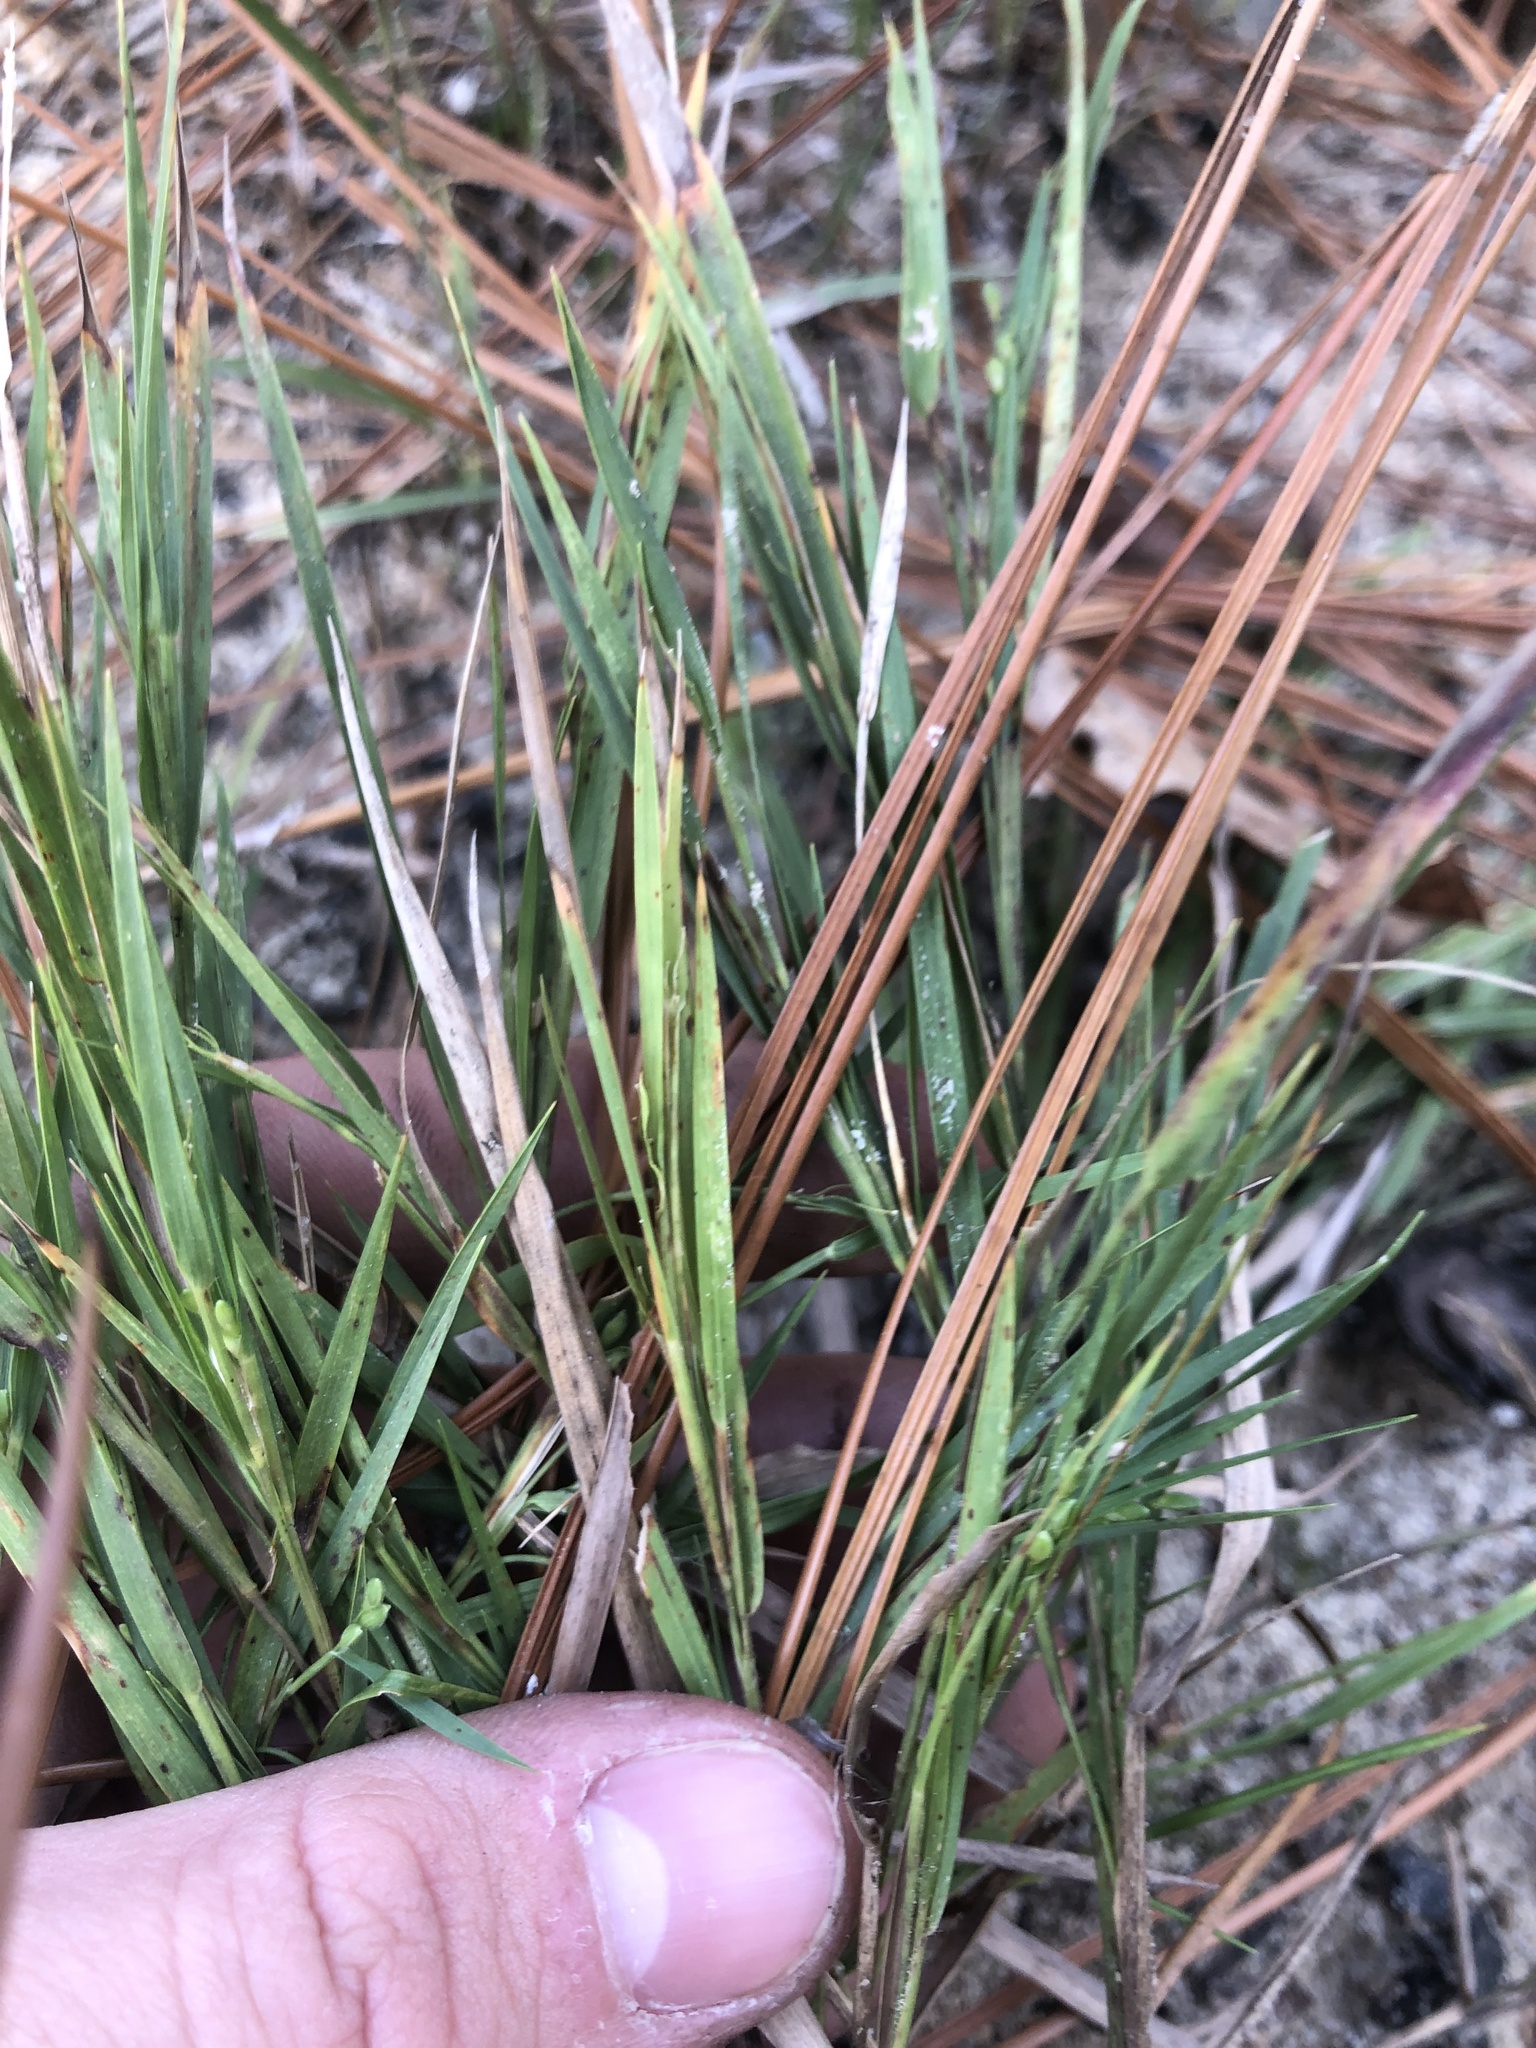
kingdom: Plantae
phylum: Tracheophyta
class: Liliopsida
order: Poales
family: Poaceae
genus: Dichanthelium
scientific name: Dichanthelium angustifolium
